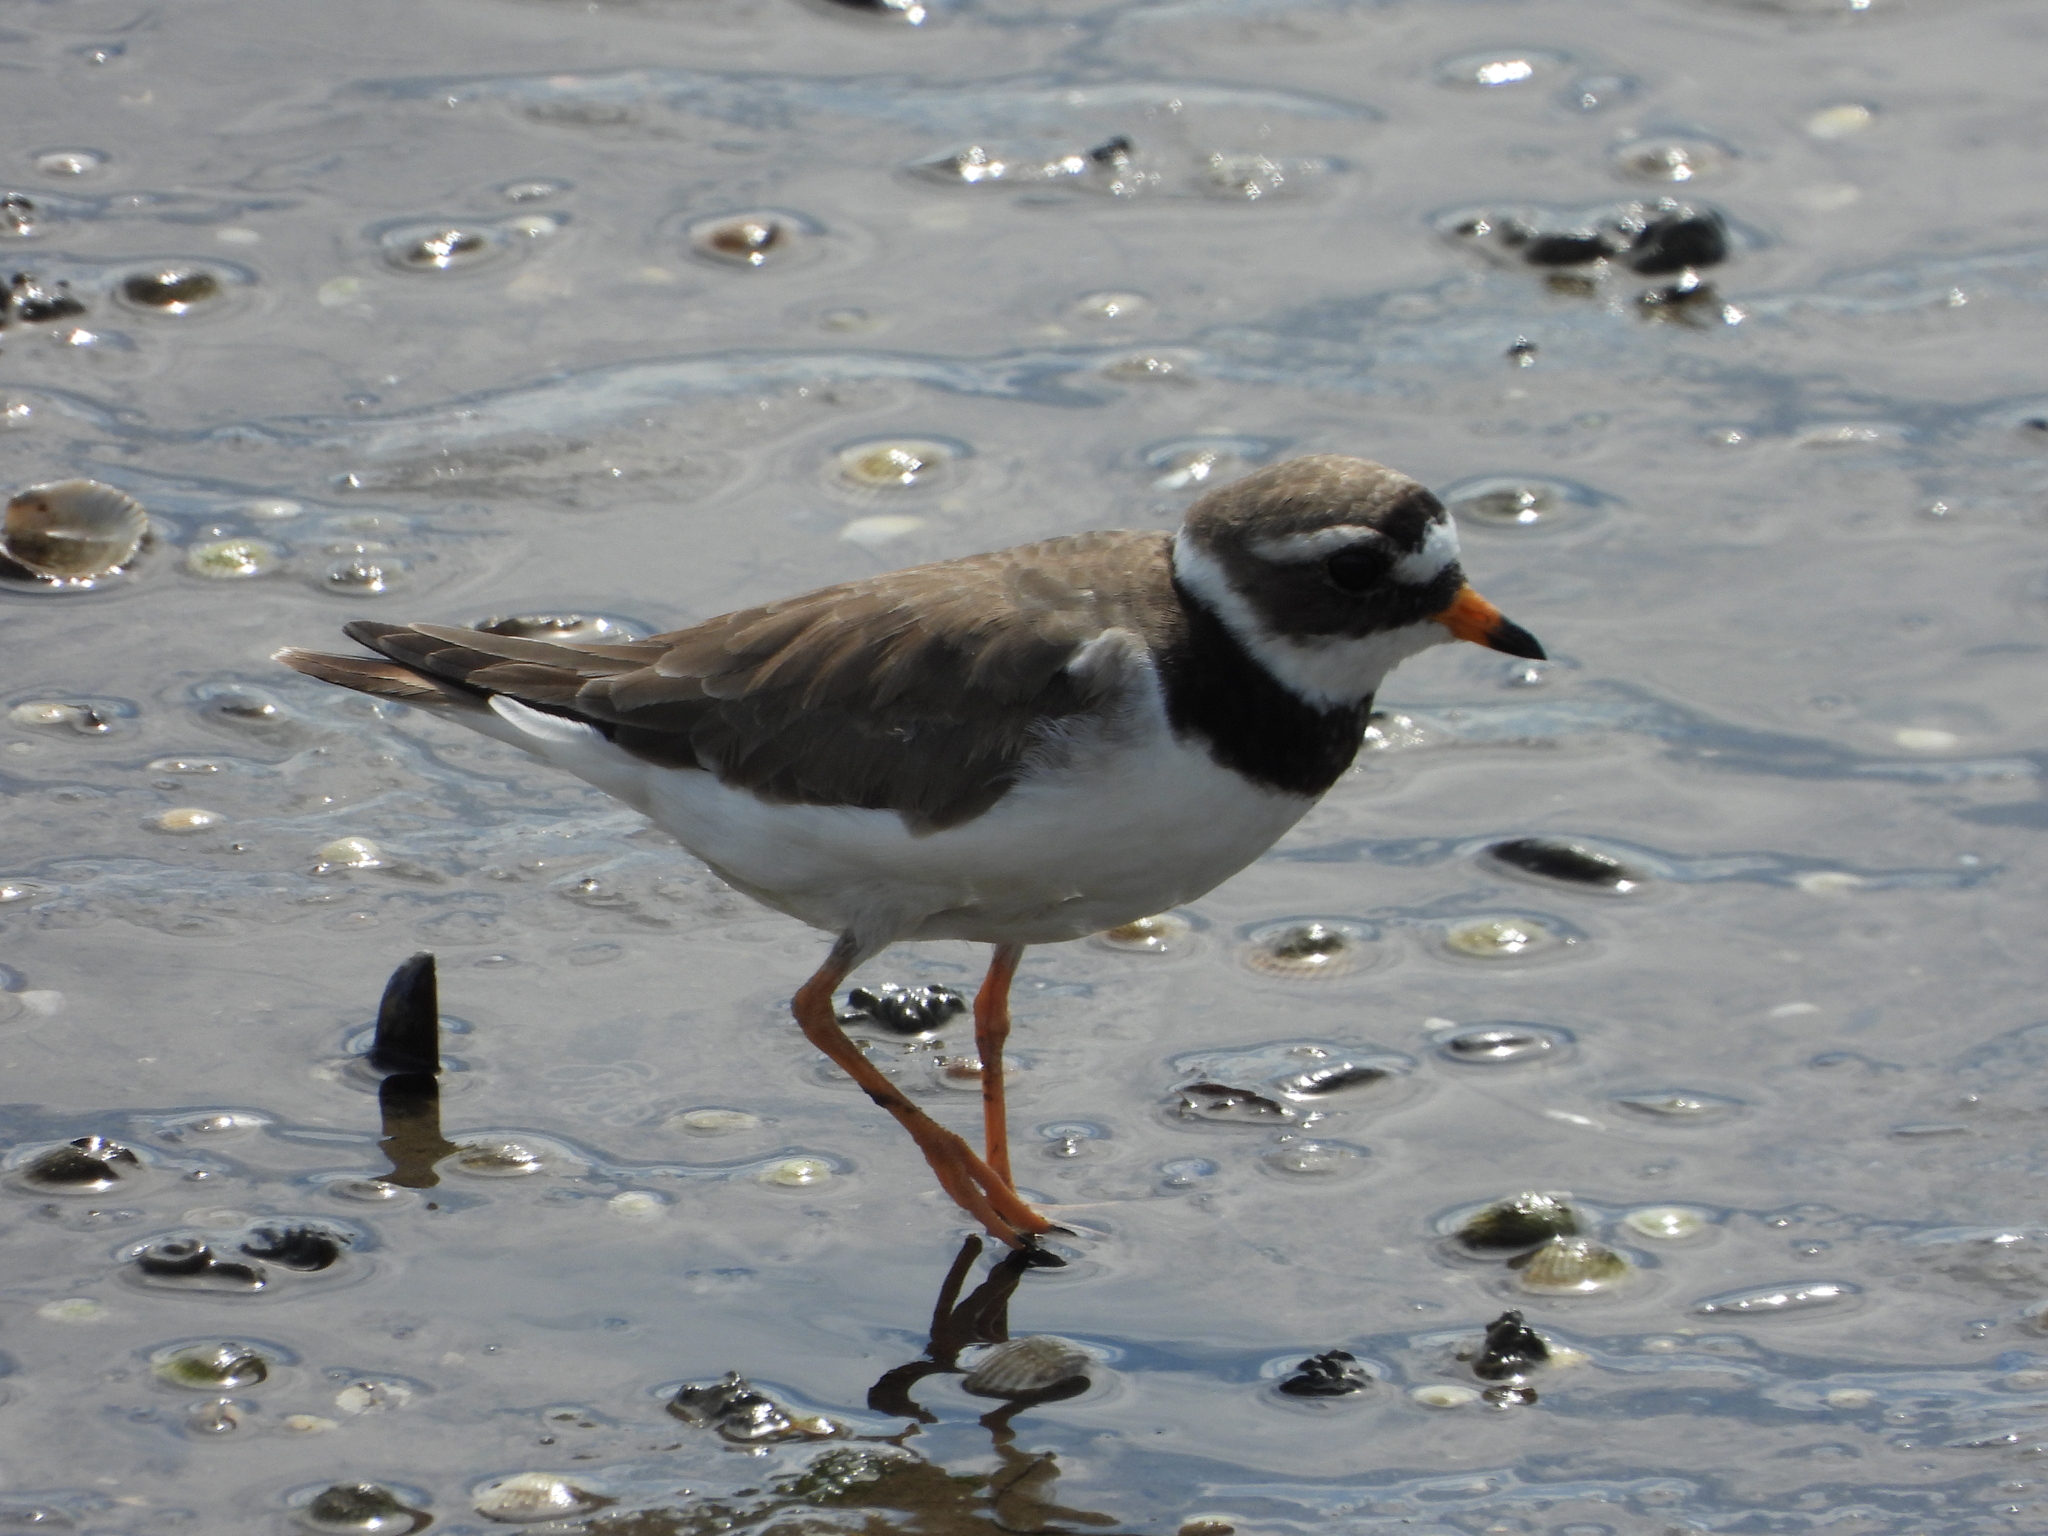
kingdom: Animalia
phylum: Chordata
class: Aves
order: Charadriiformes
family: Charadriidae
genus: Charadrius
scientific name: Charadrius hiaticula
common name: Common ringed plover
